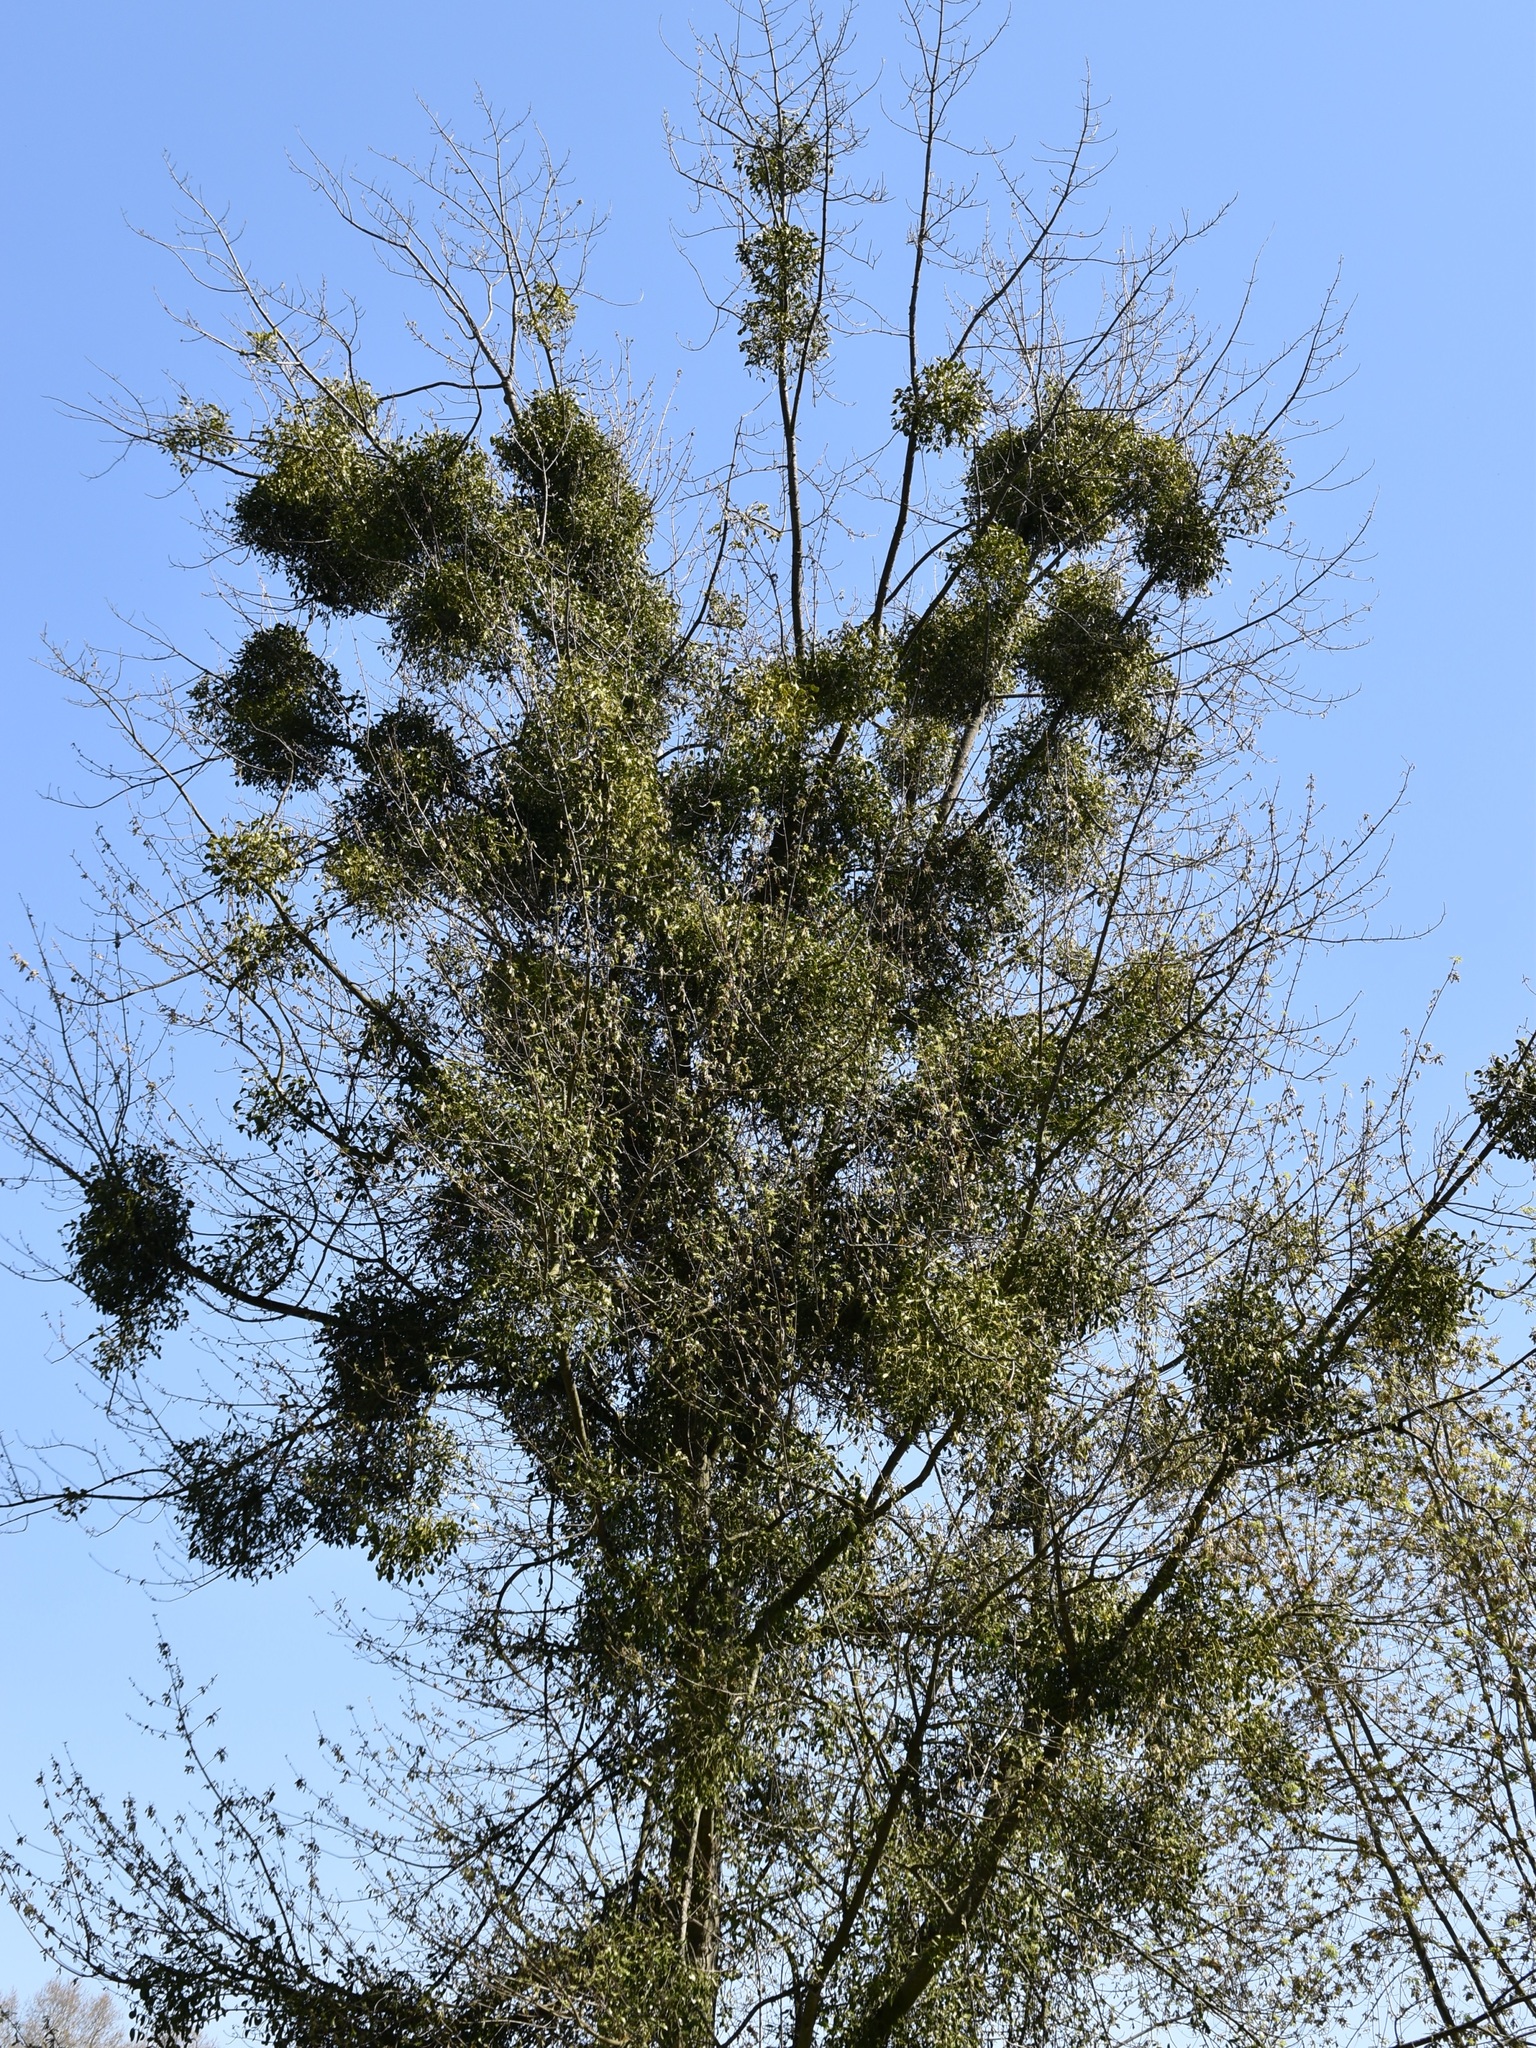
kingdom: Plantae
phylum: Tracheophyta
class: Magnoliopsida
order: Santalales
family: Viscaceae
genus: Viscum
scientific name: Viscum album
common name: Mistletoe
